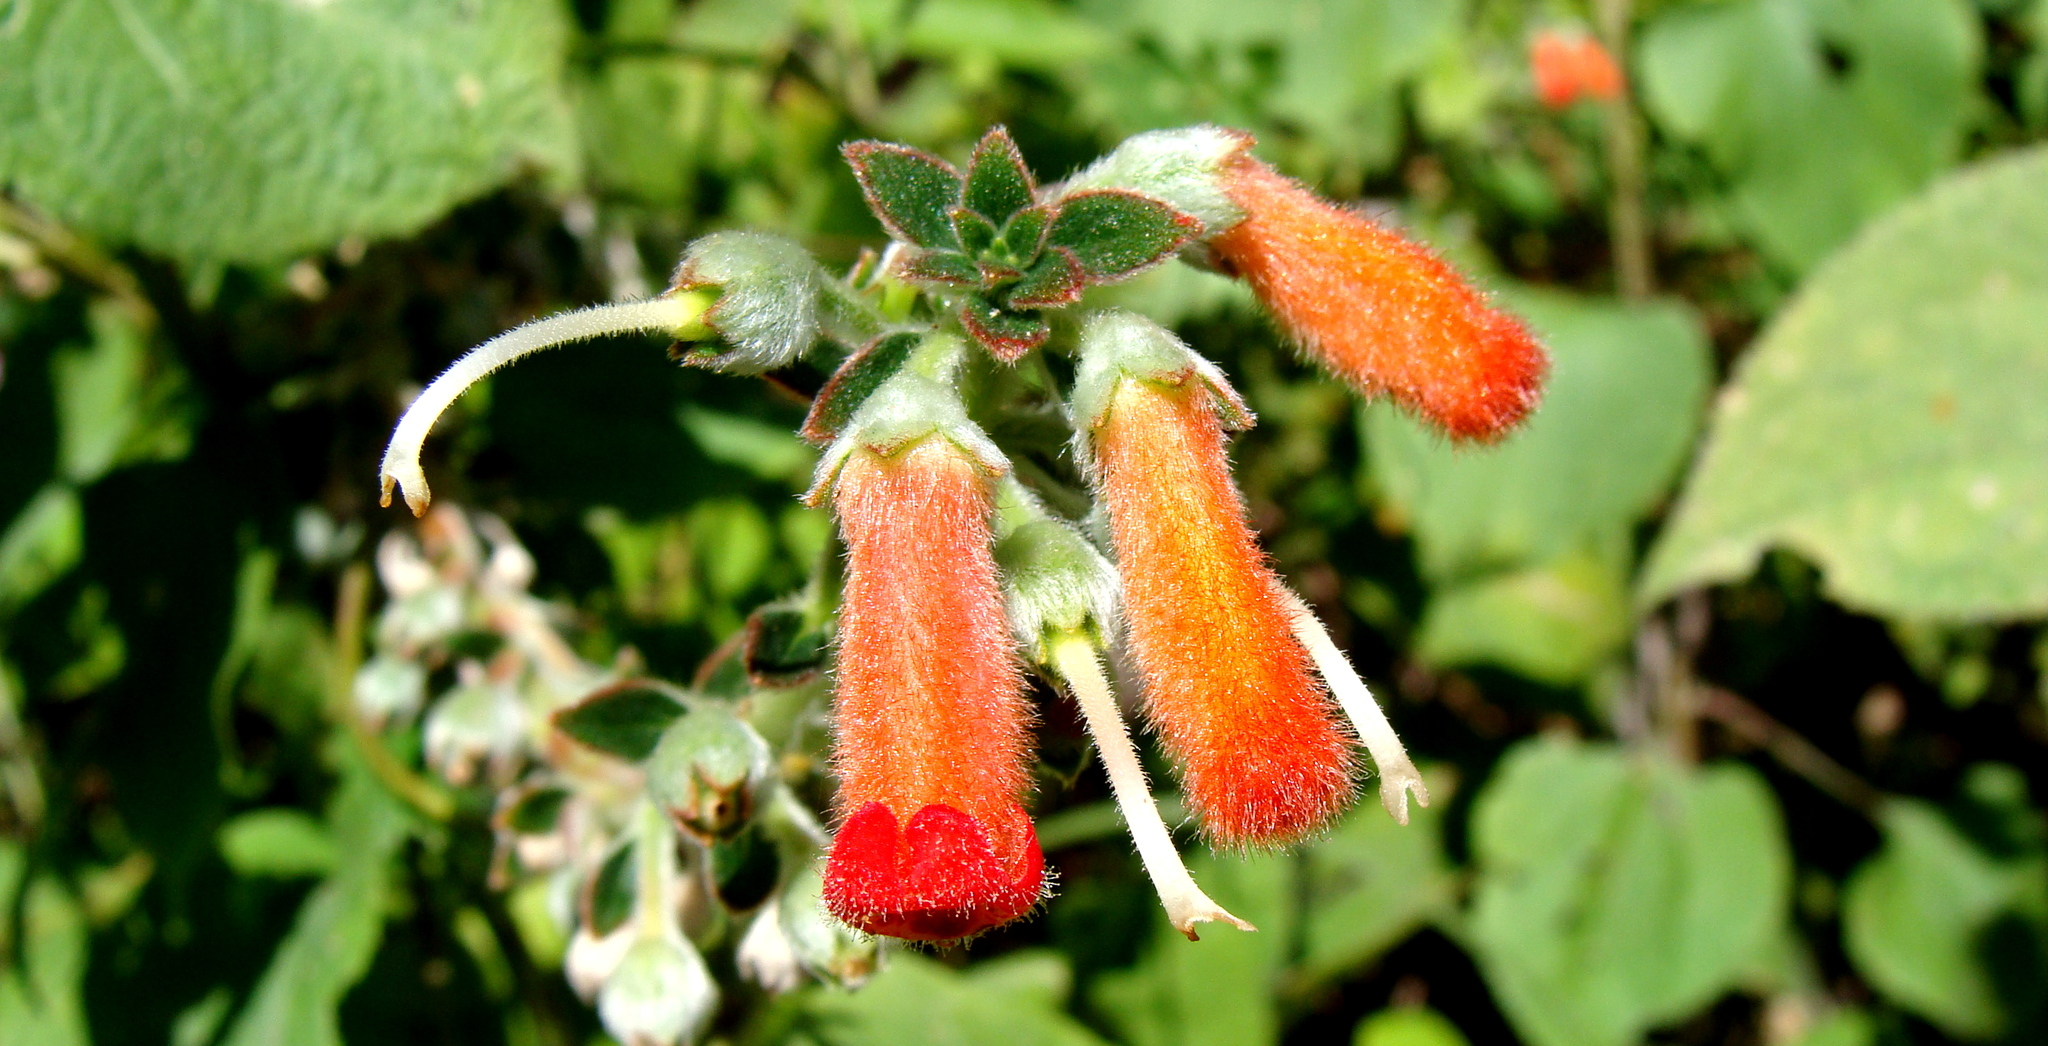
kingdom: Plantae
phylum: Tracheophyta
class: Magnoliopsida
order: Lamiales
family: Gesneriaceae
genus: Kohleria
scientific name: Kohleria spicata
